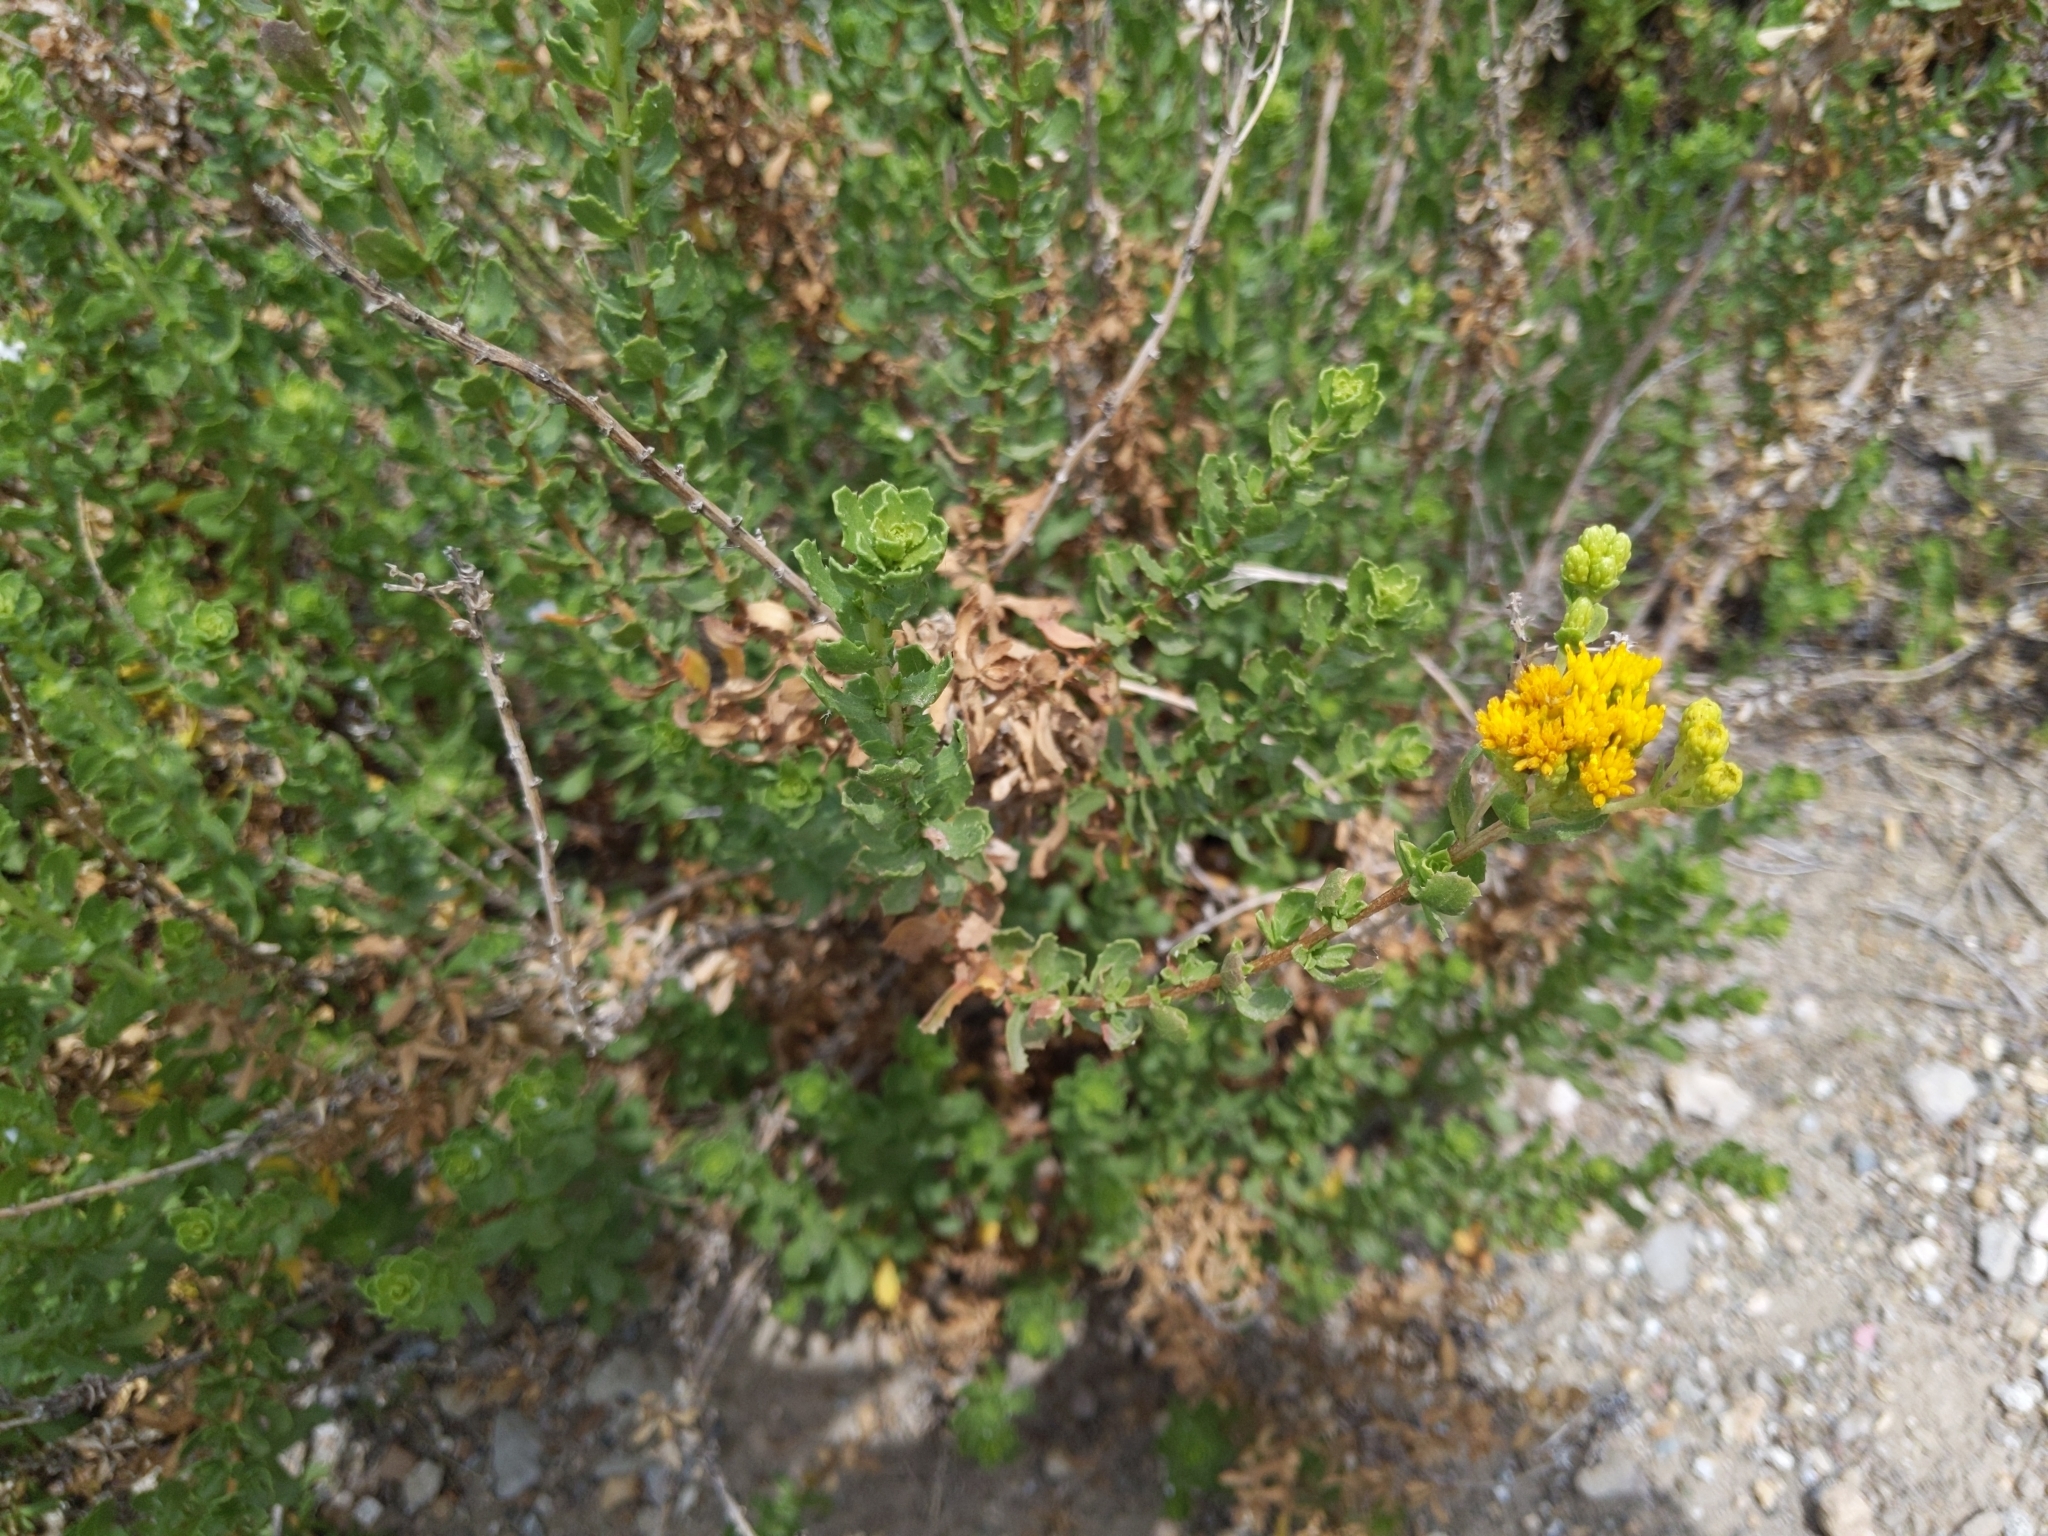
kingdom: Plantae
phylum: Tracheophyta
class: Magnoliopsida
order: Asterales
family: Asteraceae
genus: Isocoma
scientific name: Isocoma menziesii
